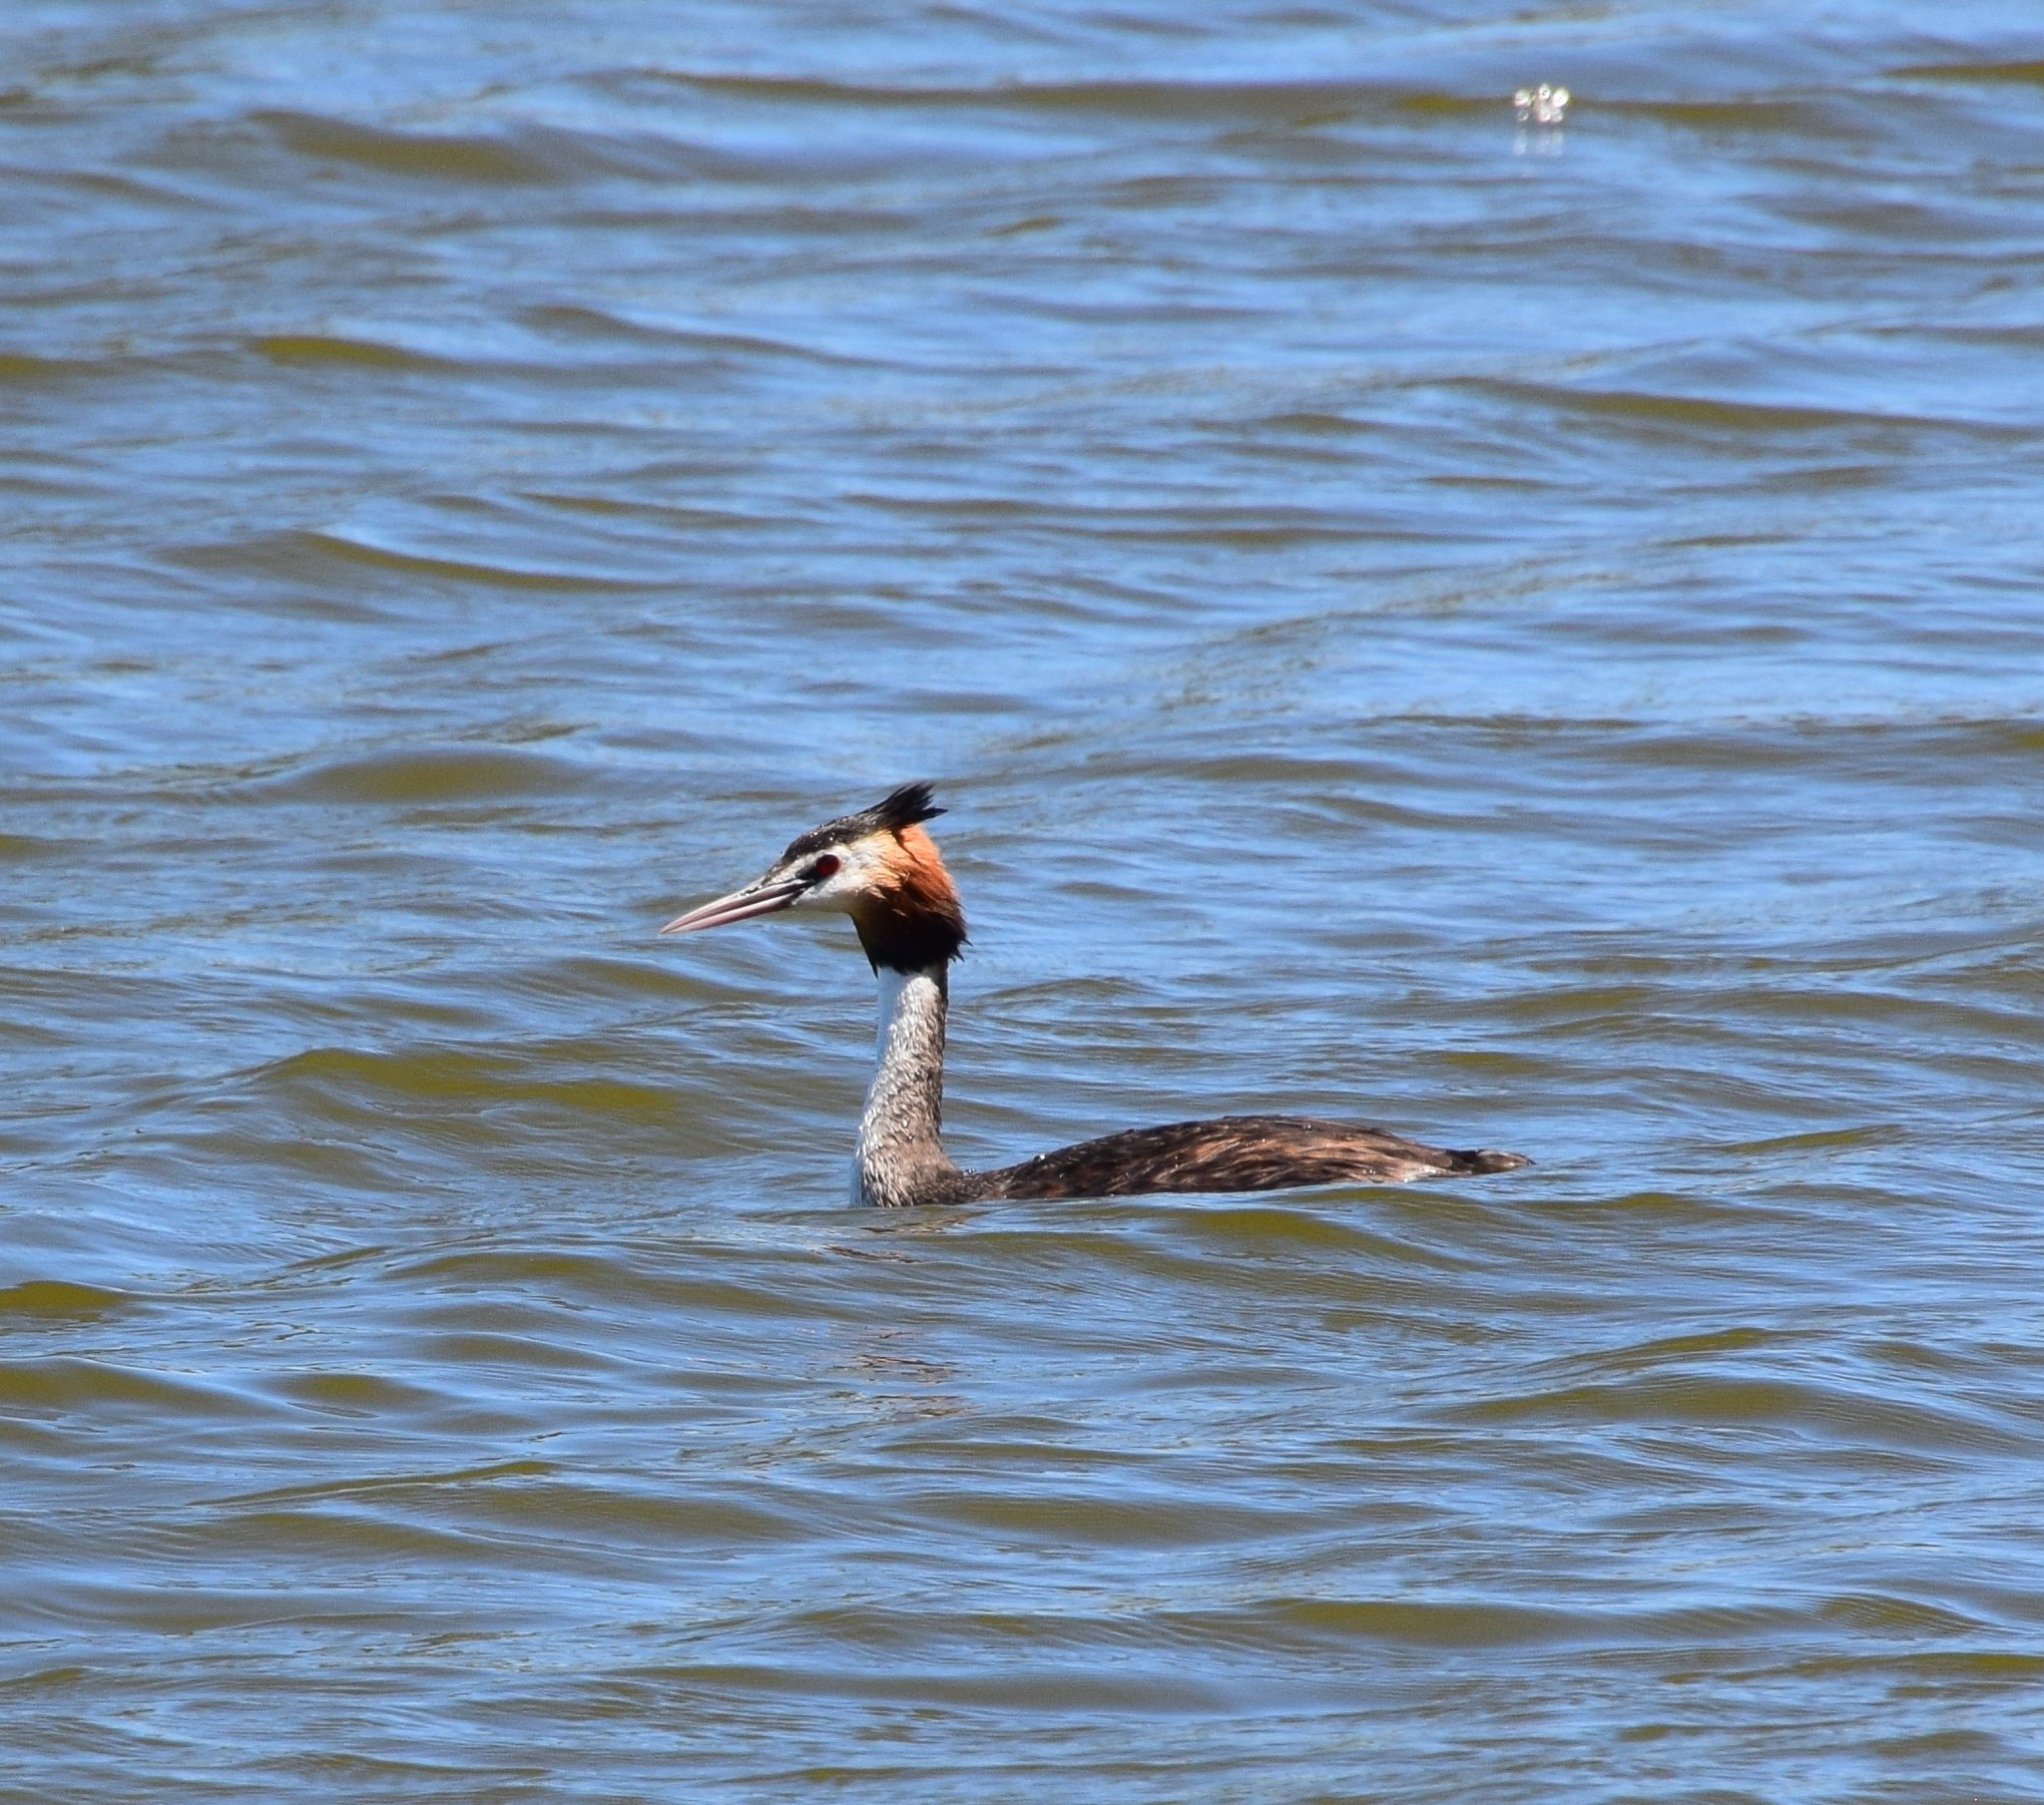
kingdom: Animalia
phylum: Chordata
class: Aves
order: Podicipediformes
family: Podicipedidae
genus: Podiceps
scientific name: Podiceps cristatus
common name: Great crested grebe
